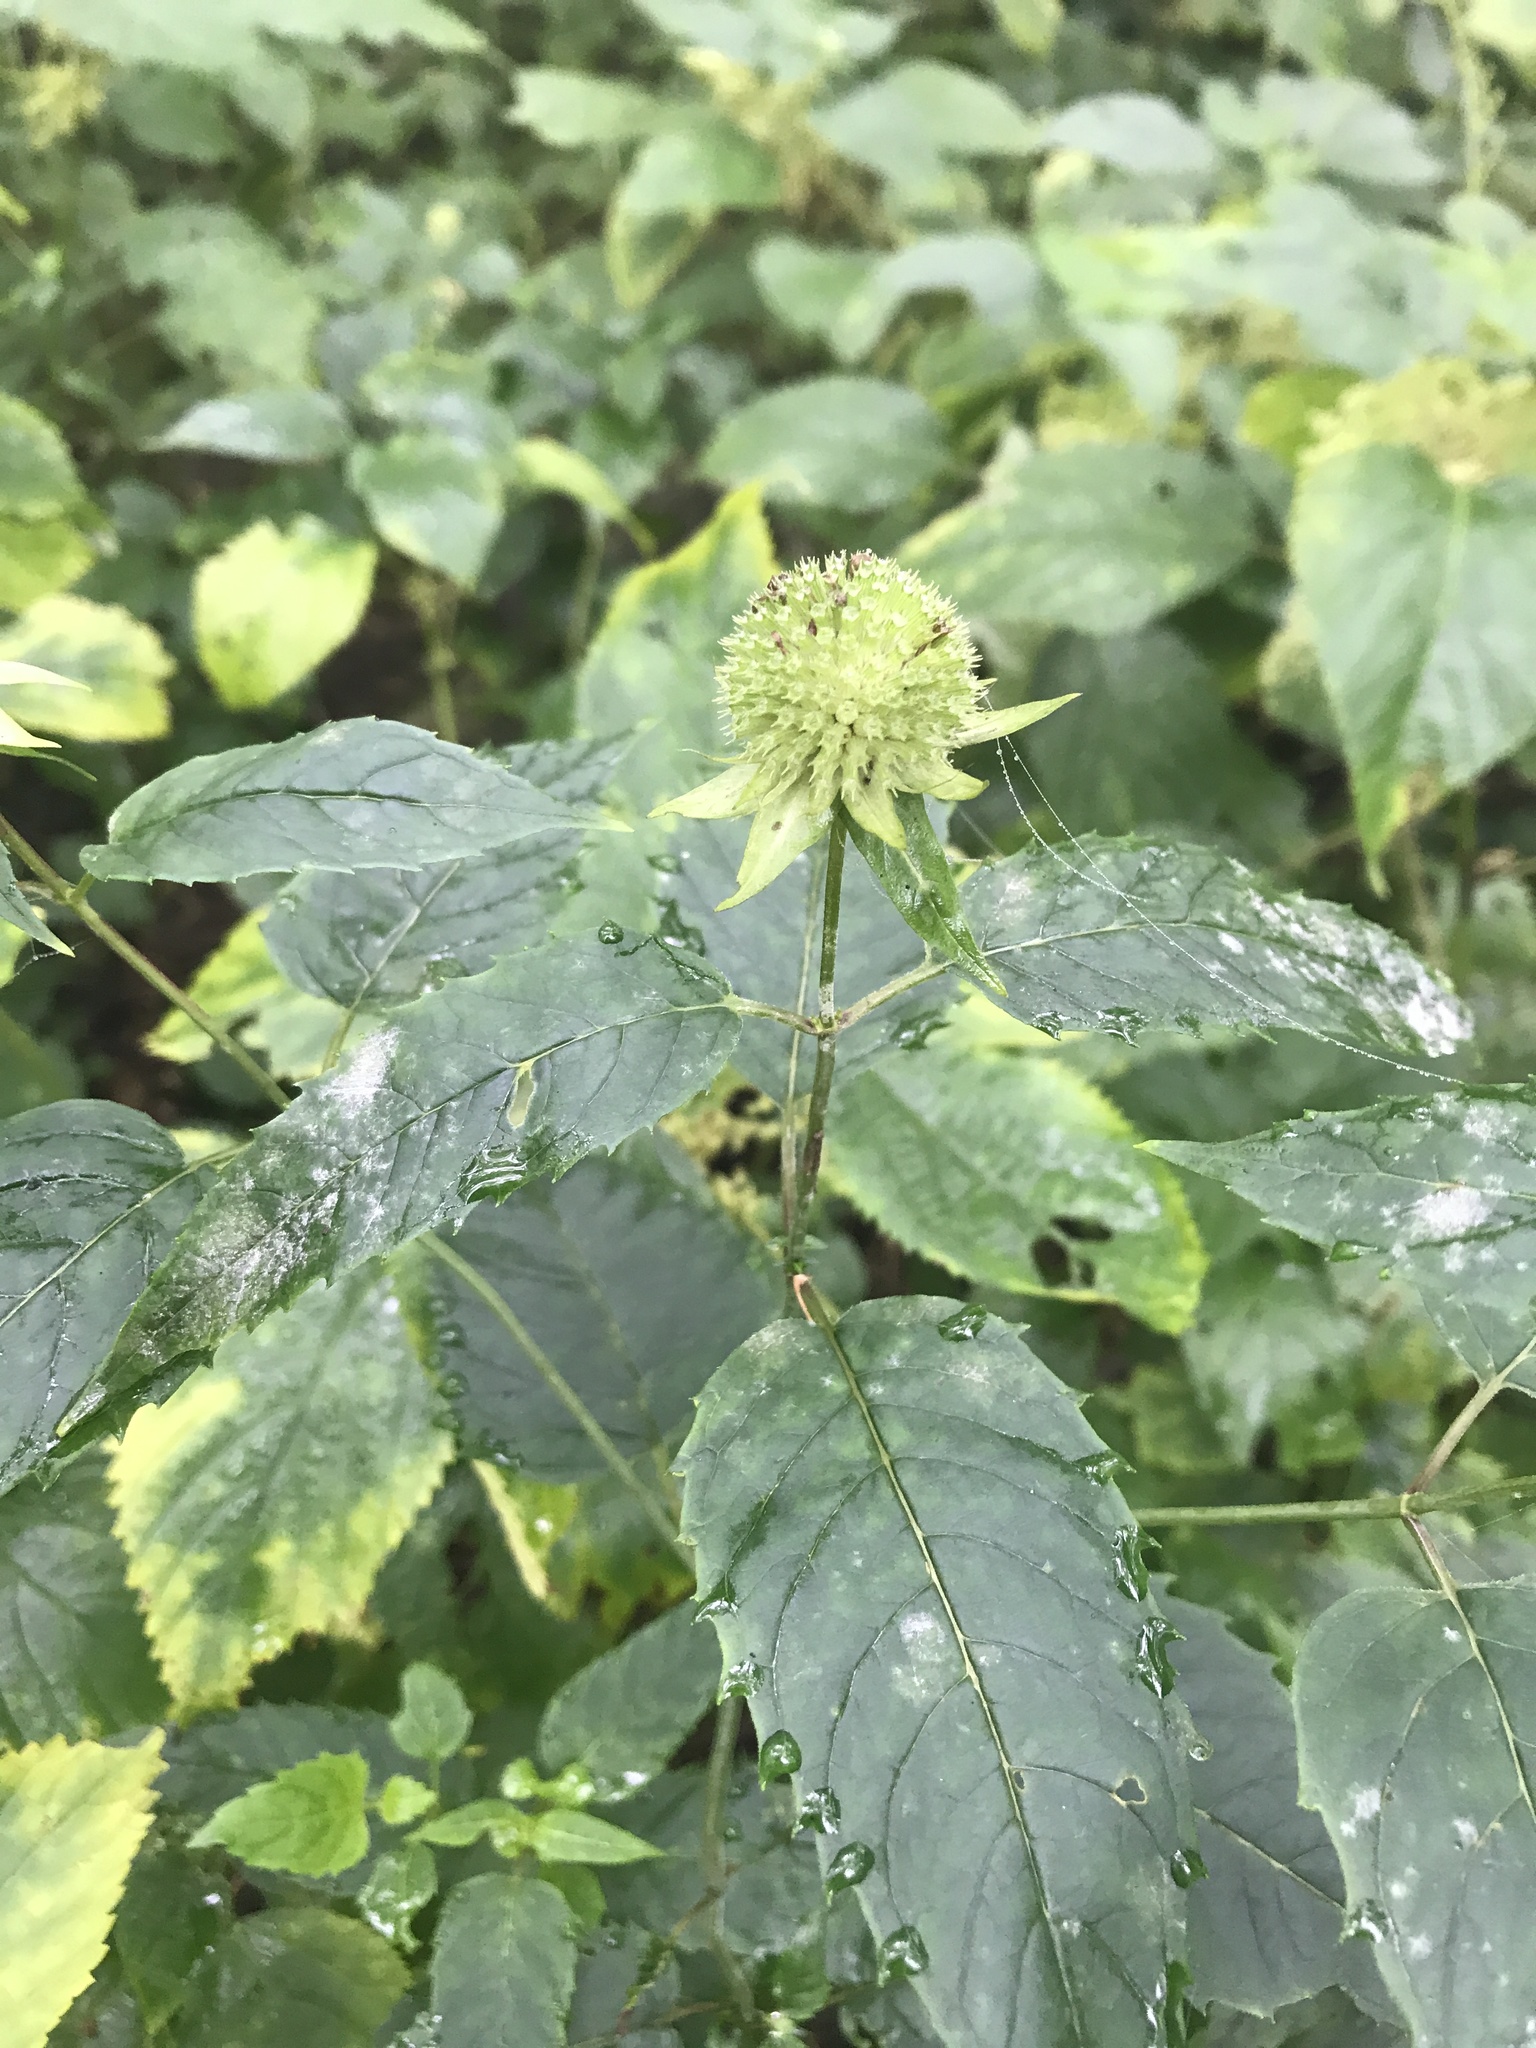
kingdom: Plantae
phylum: Tracheophyta
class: Magnoliopsida
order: Lamiales
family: Lamiaceae
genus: Monarda
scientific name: Monarda clinopodia
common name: Basil beebalm
